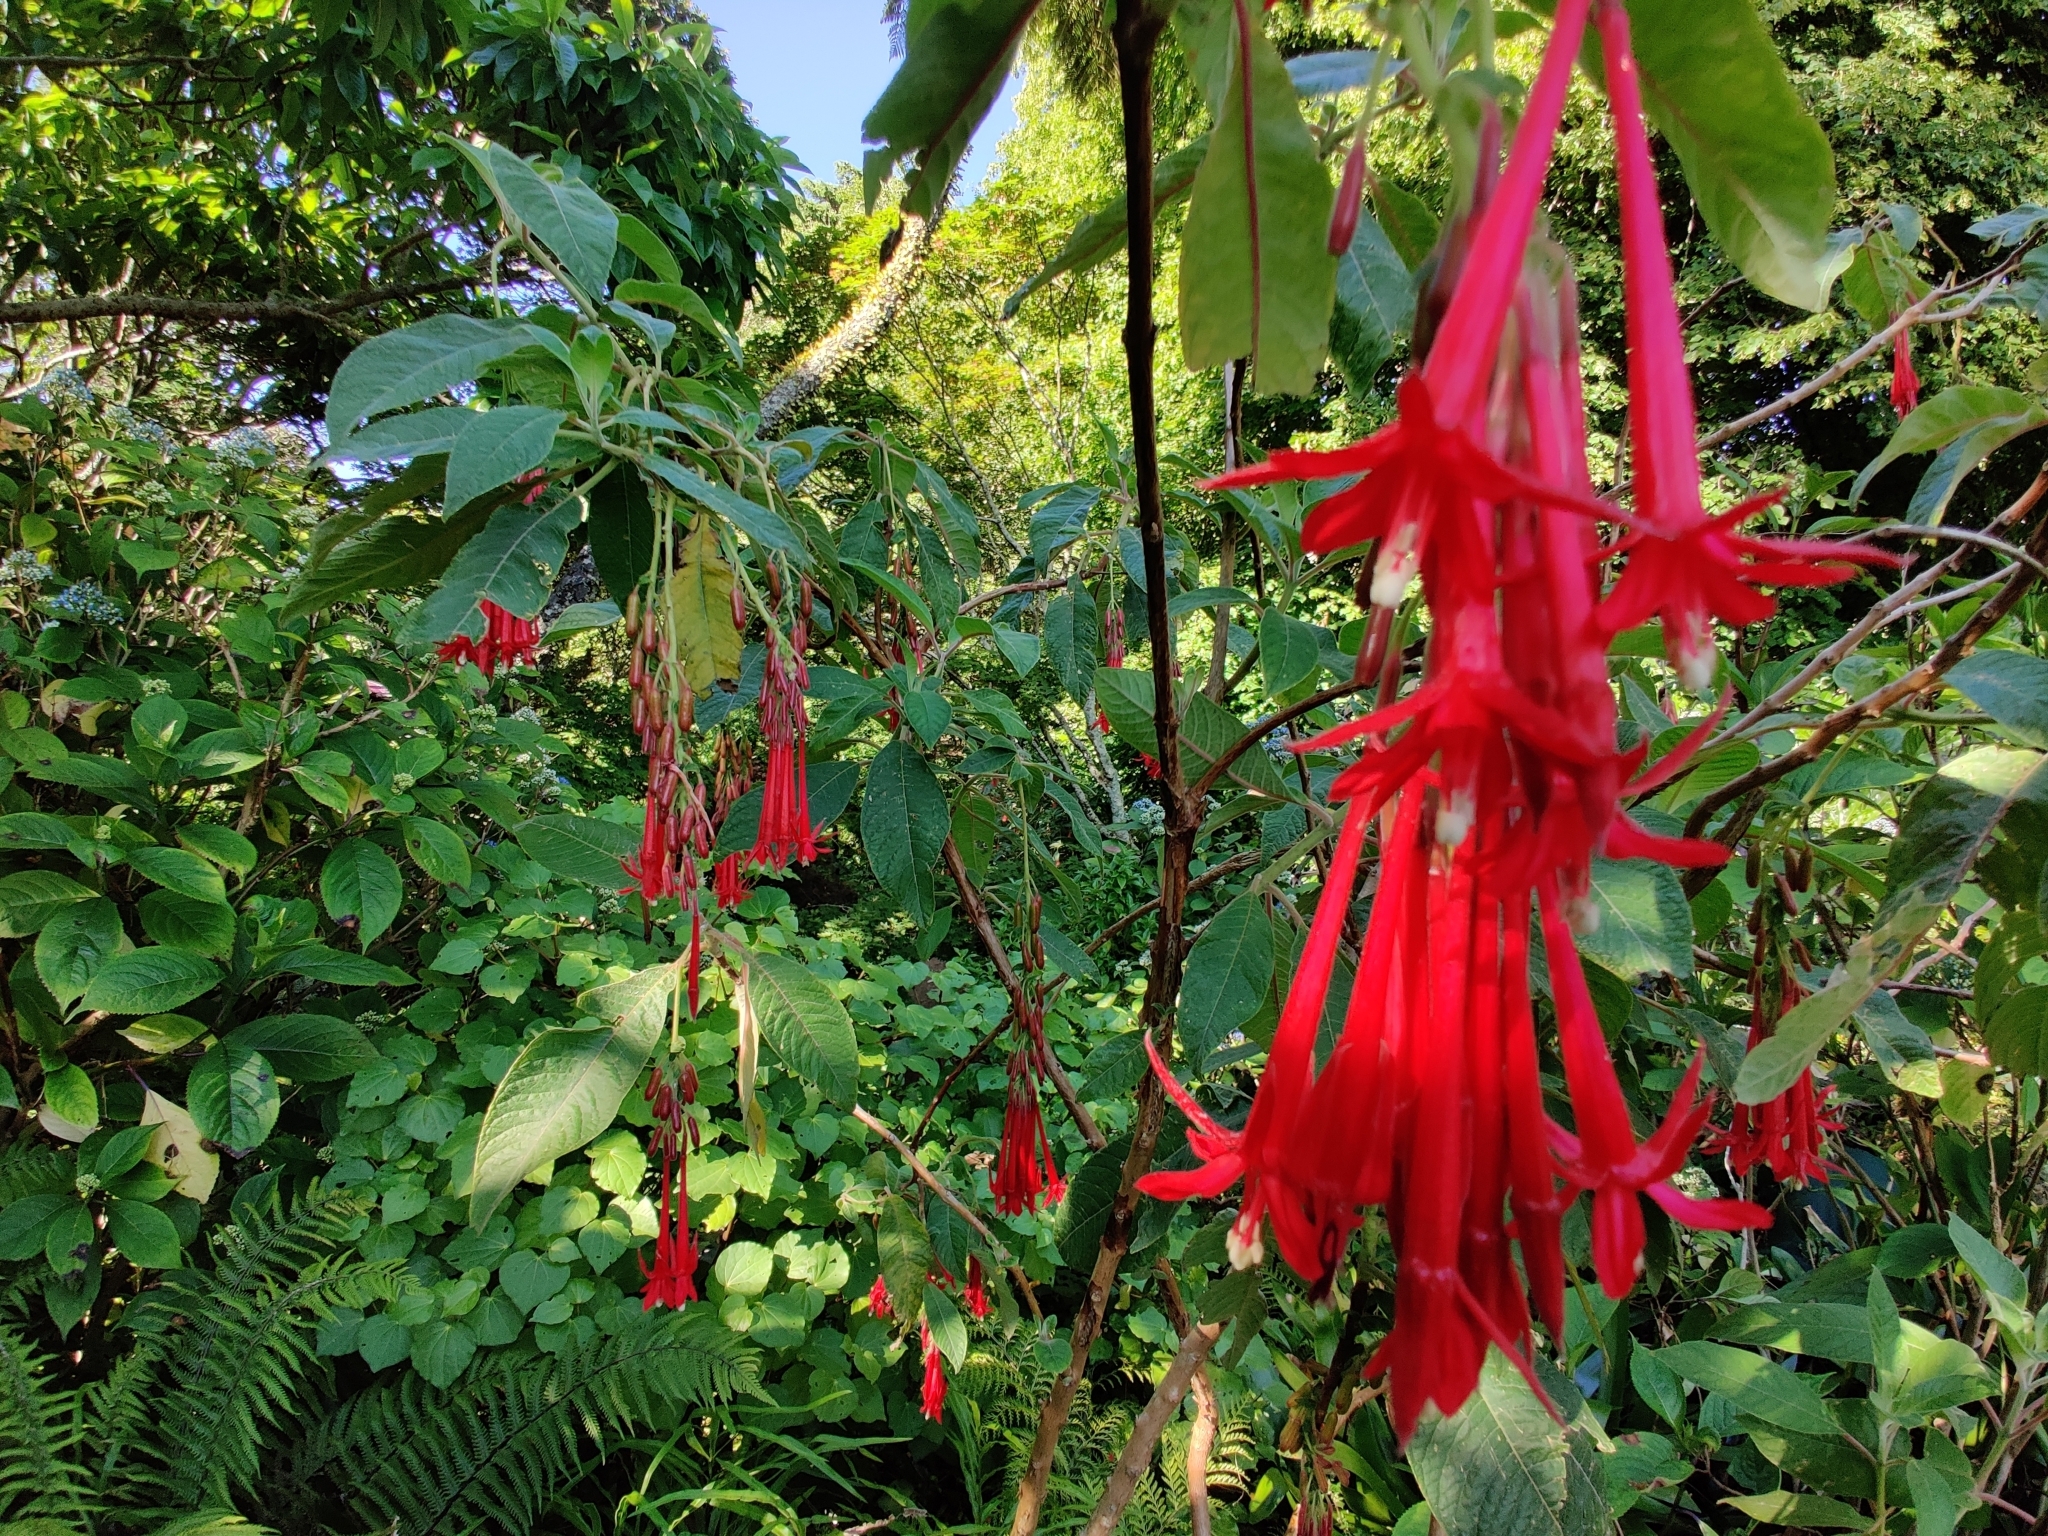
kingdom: Plantae
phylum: Tracheophyta
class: Magnoliopsida
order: Myrtales
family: Onagraceae
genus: Fuchsia
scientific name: Fuchsia boliviana
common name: Bolivian fuchsia
